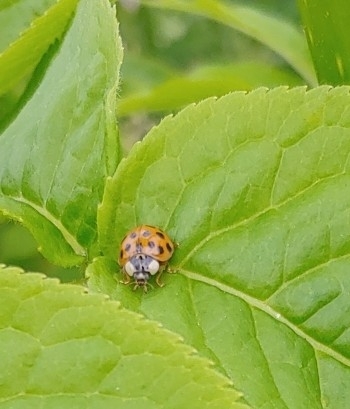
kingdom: Animalia
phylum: Arthropoda
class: Insecta
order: Coleoptera
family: Coccinellidae
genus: Harmonia
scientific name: Harmonia axyridis
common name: Harlequin ladybird
